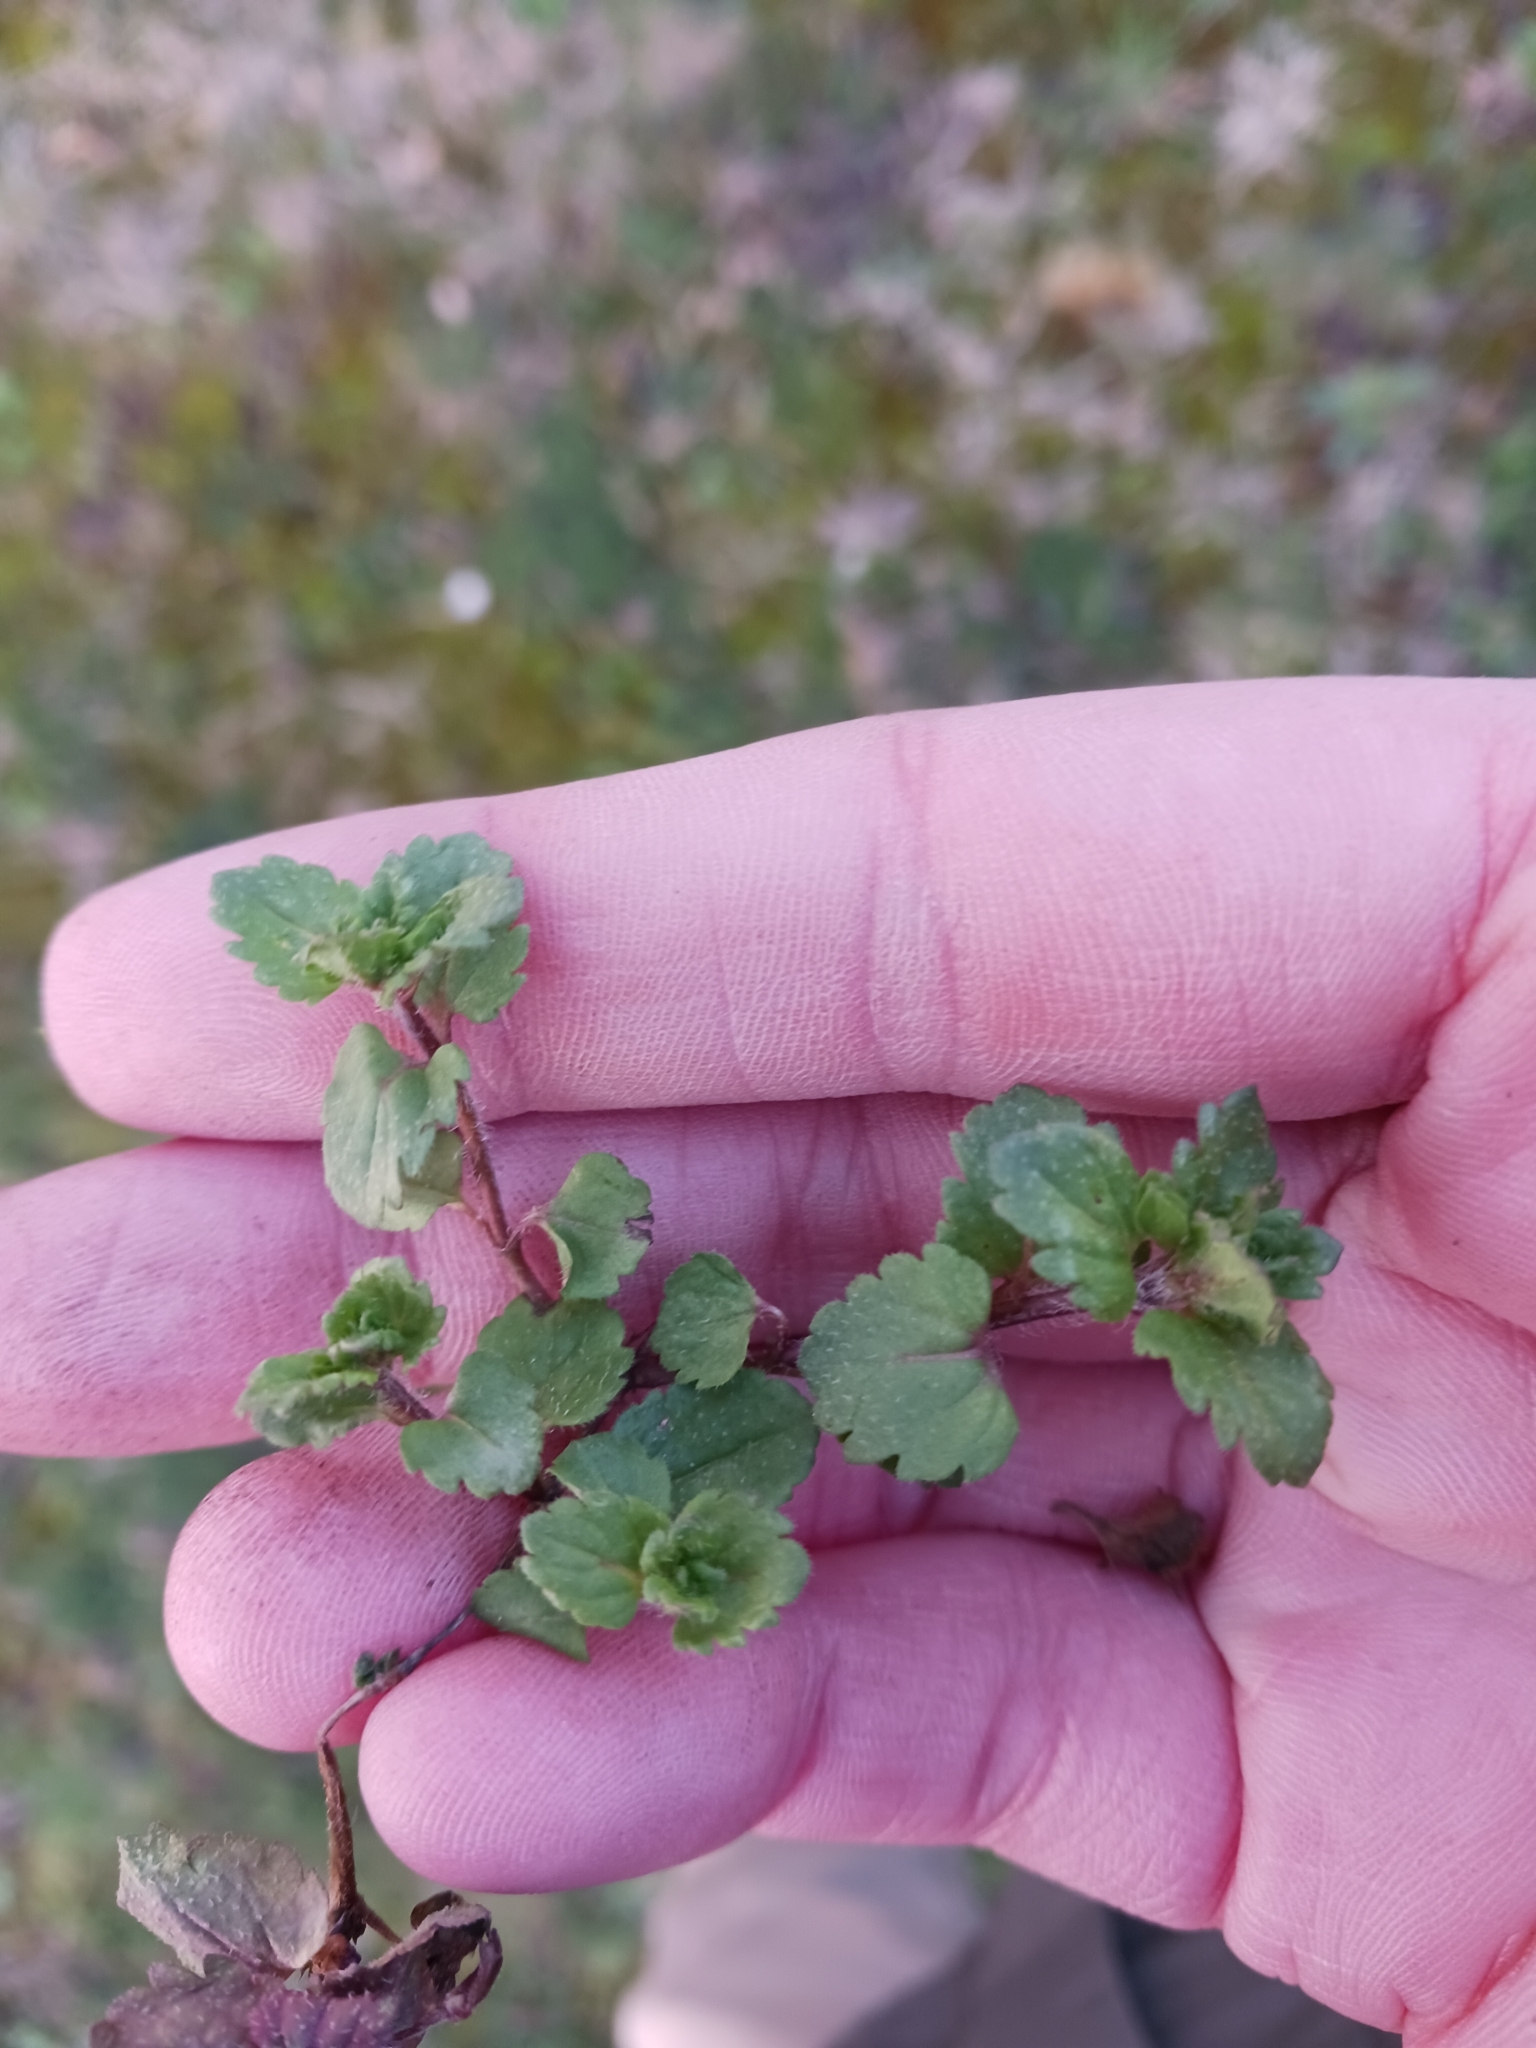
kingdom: Plantae
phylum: Tracheophyta
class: Magnoliopsida
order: Lamiales
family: Plantaginaceae
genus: Veronica
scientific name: Veronica persica
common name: Common field-speedwell
